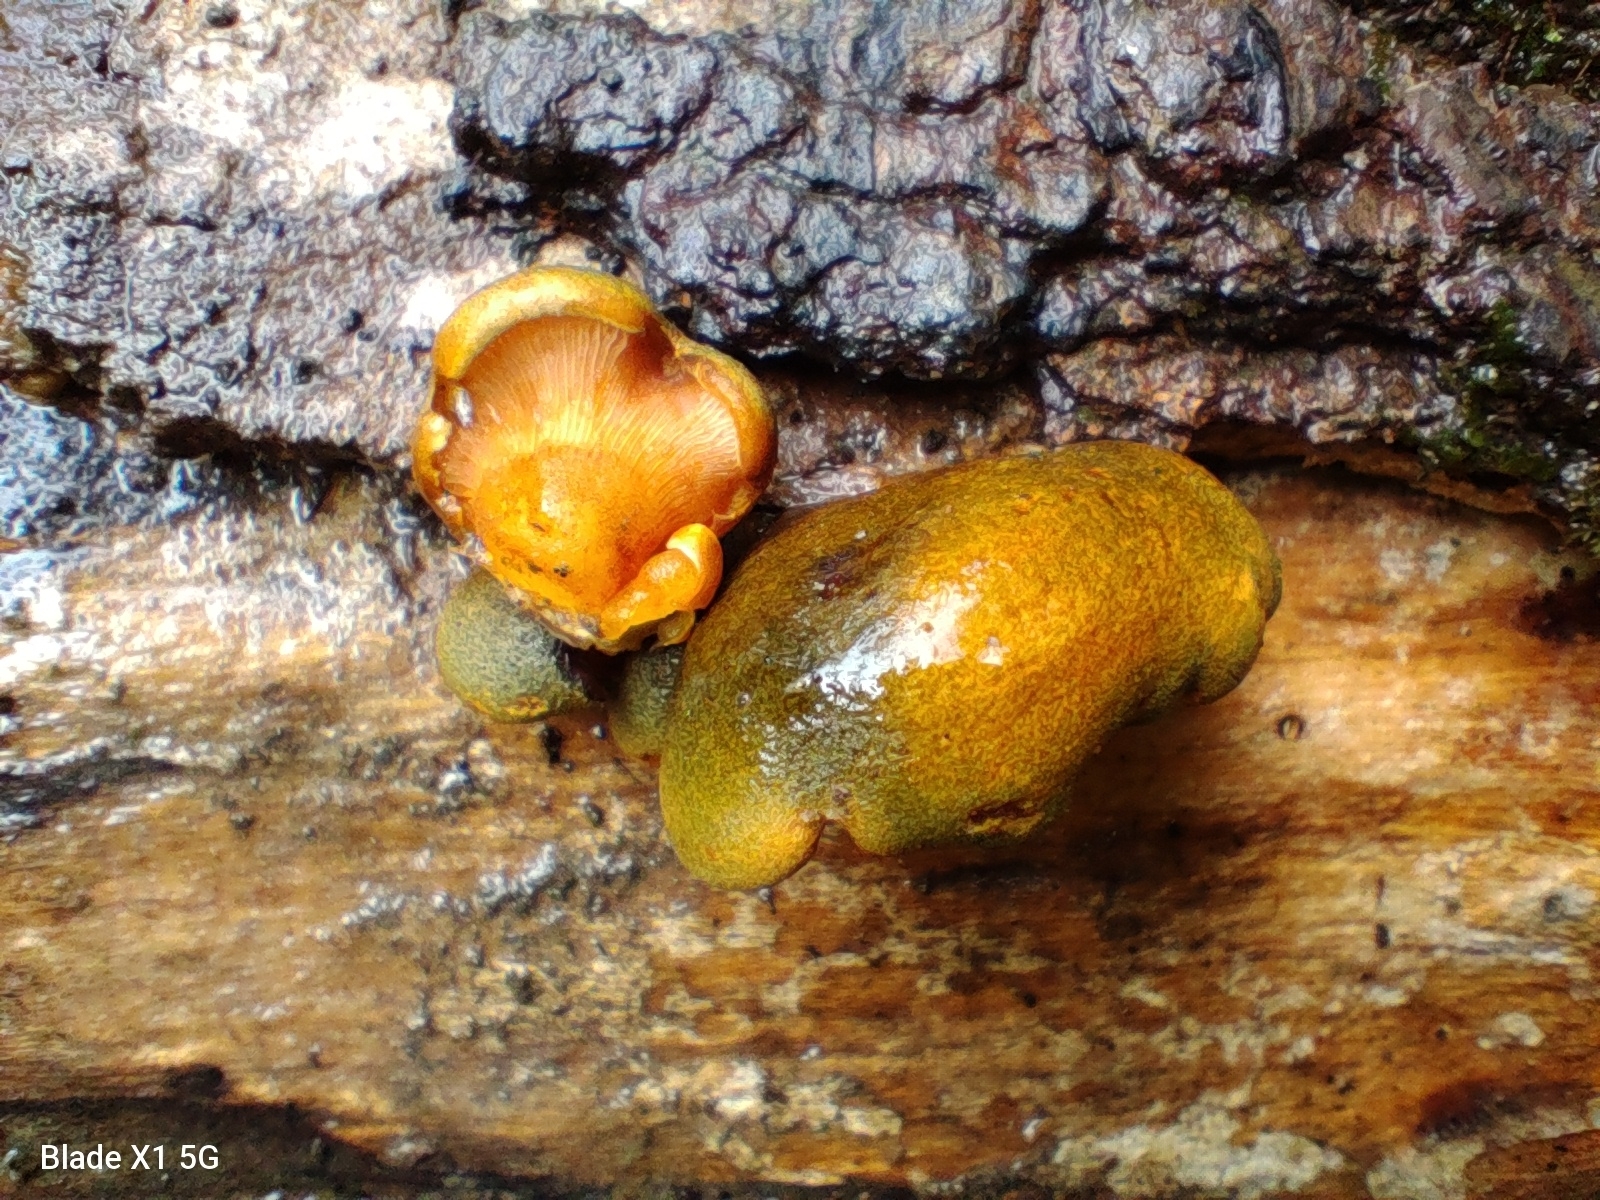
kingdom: Fungi
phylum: Basidiomycota
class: Agaricomycetes
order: Agaricales
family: Sarcomyxaceae
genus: Sarcomyxa
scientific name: Sarcomyxa serotina
